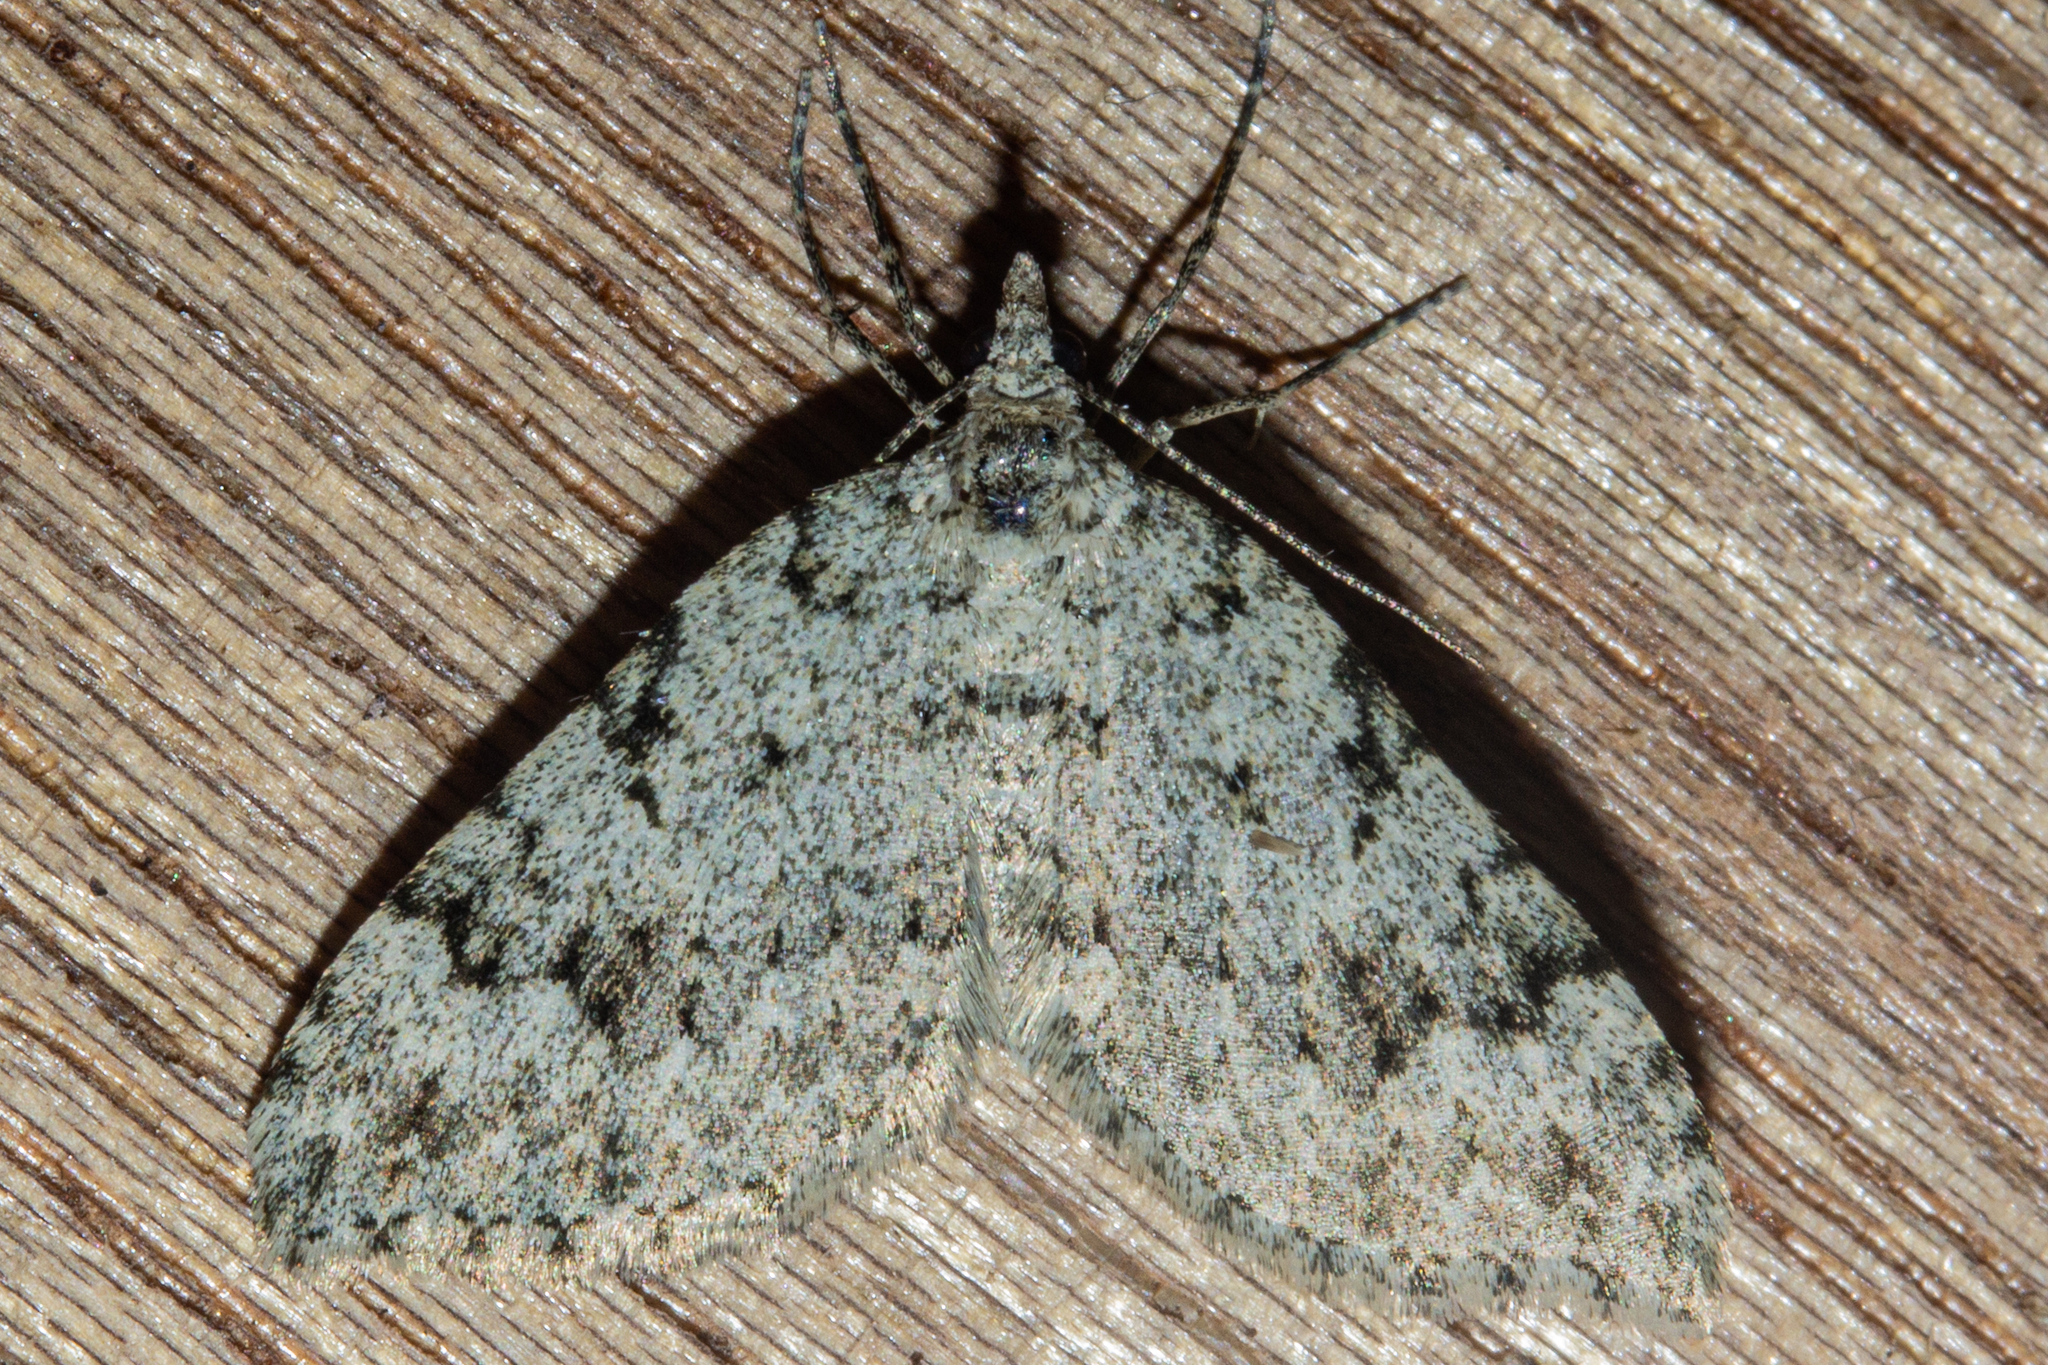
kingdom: Animalia
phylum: Arthropoda
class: Insecta
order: Lepidoptera
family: Geometridae
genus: Helastia
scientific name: Helastia cinerearia
